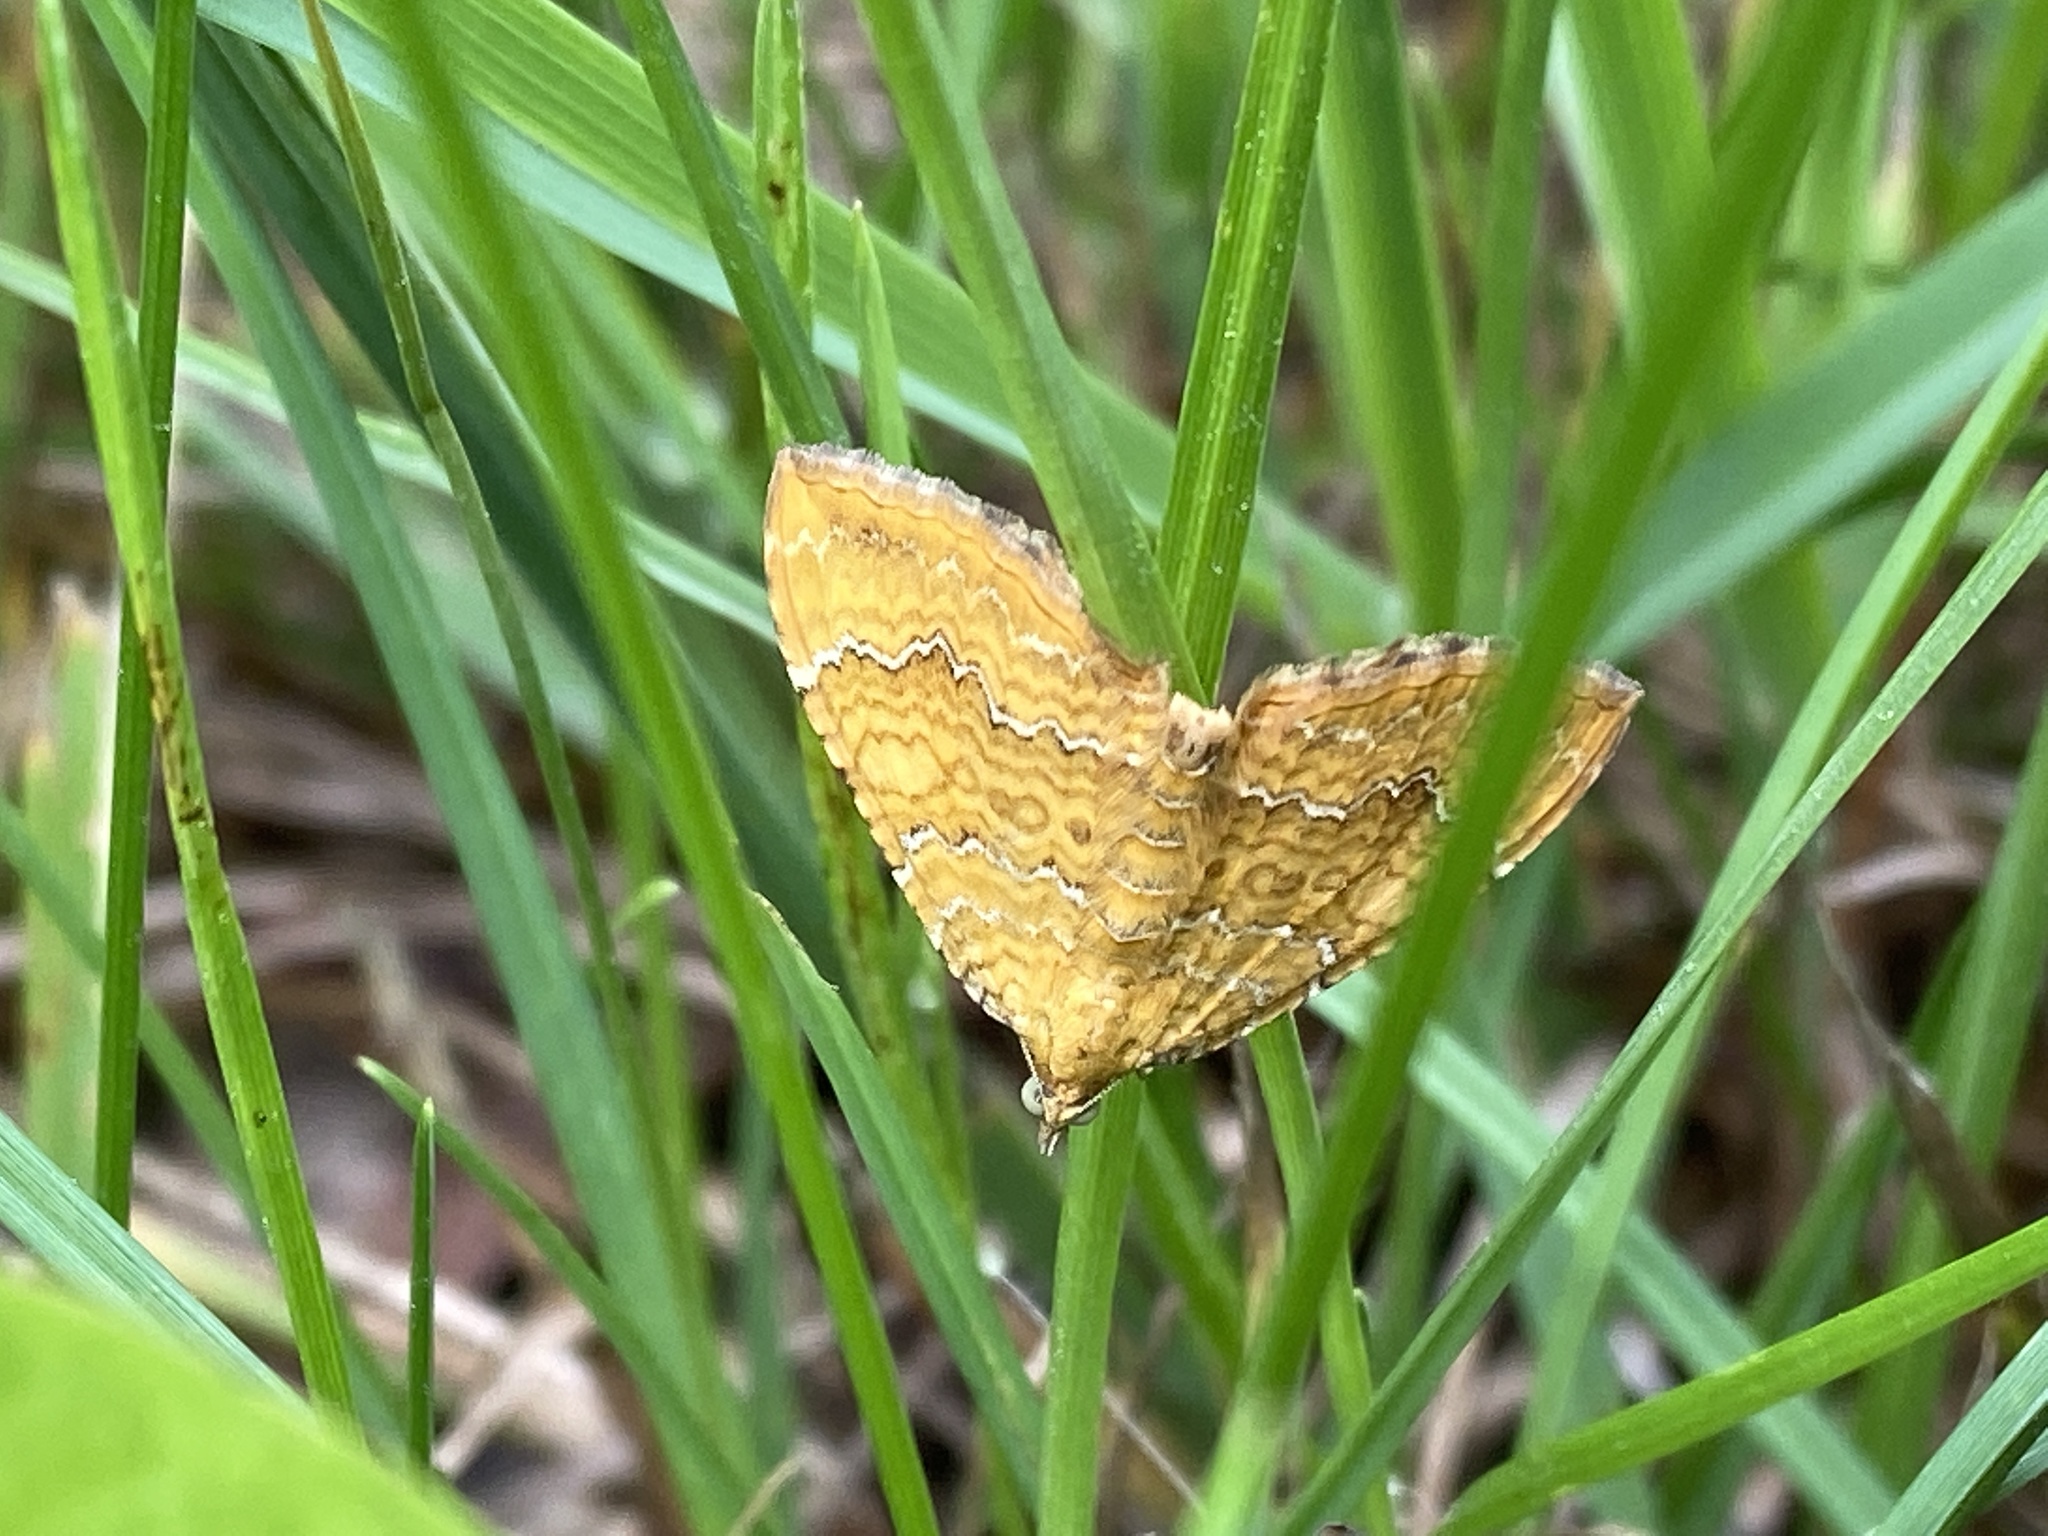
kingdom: Animalia
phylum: Arthropoda
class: Insecta
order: Lepidoptera
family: Geometridae
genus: Camptogramma
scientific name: Camptogramma bilineata
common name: Yellow shell
